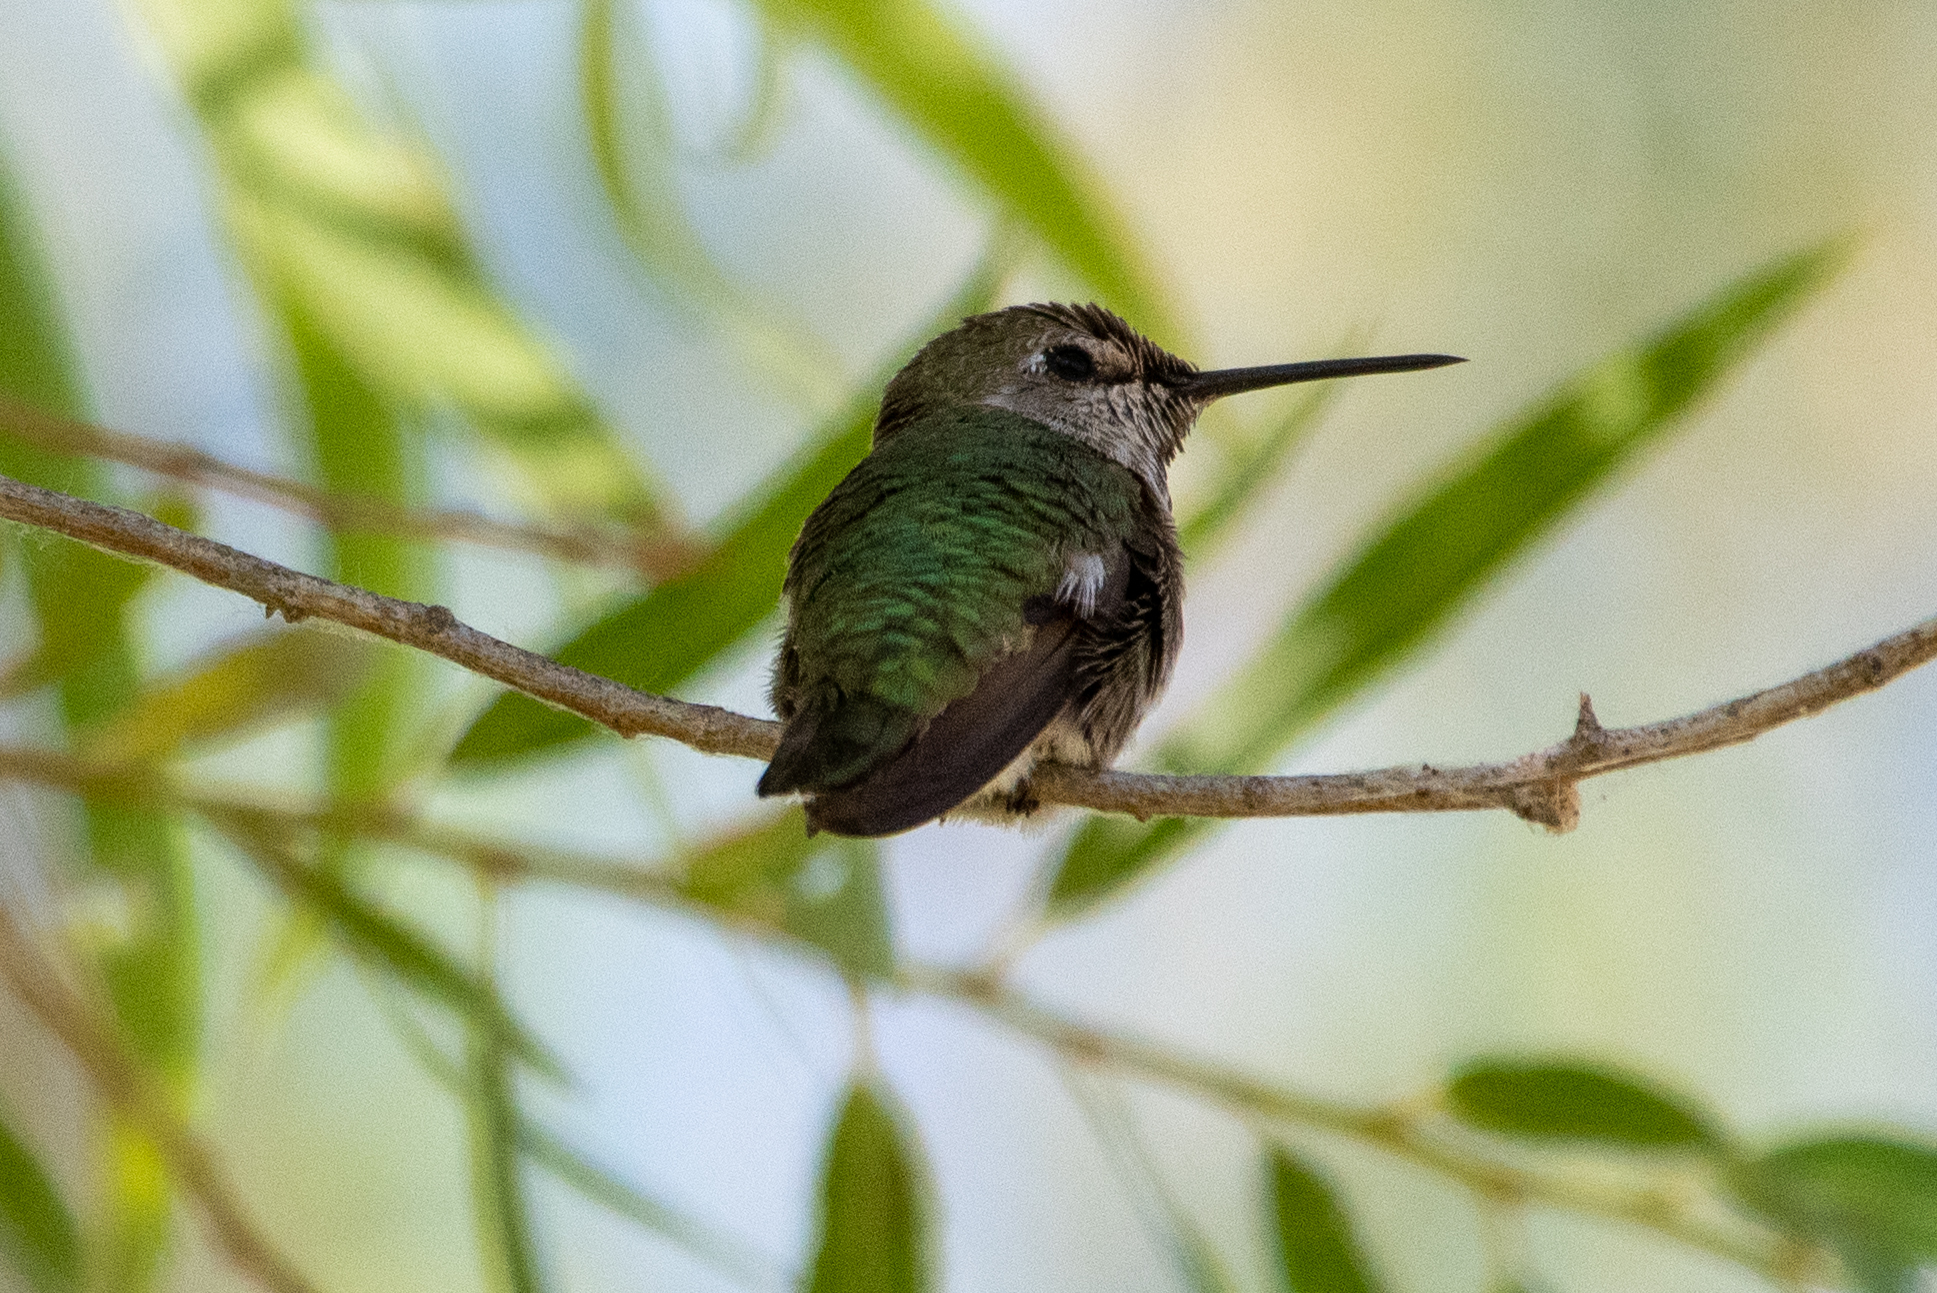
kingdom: Animalia
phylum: Chordata
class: Aves
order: Apodiformes
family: Trochilidae
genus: Calypte
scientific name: Calypte anna
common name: Anna's hummingbird
